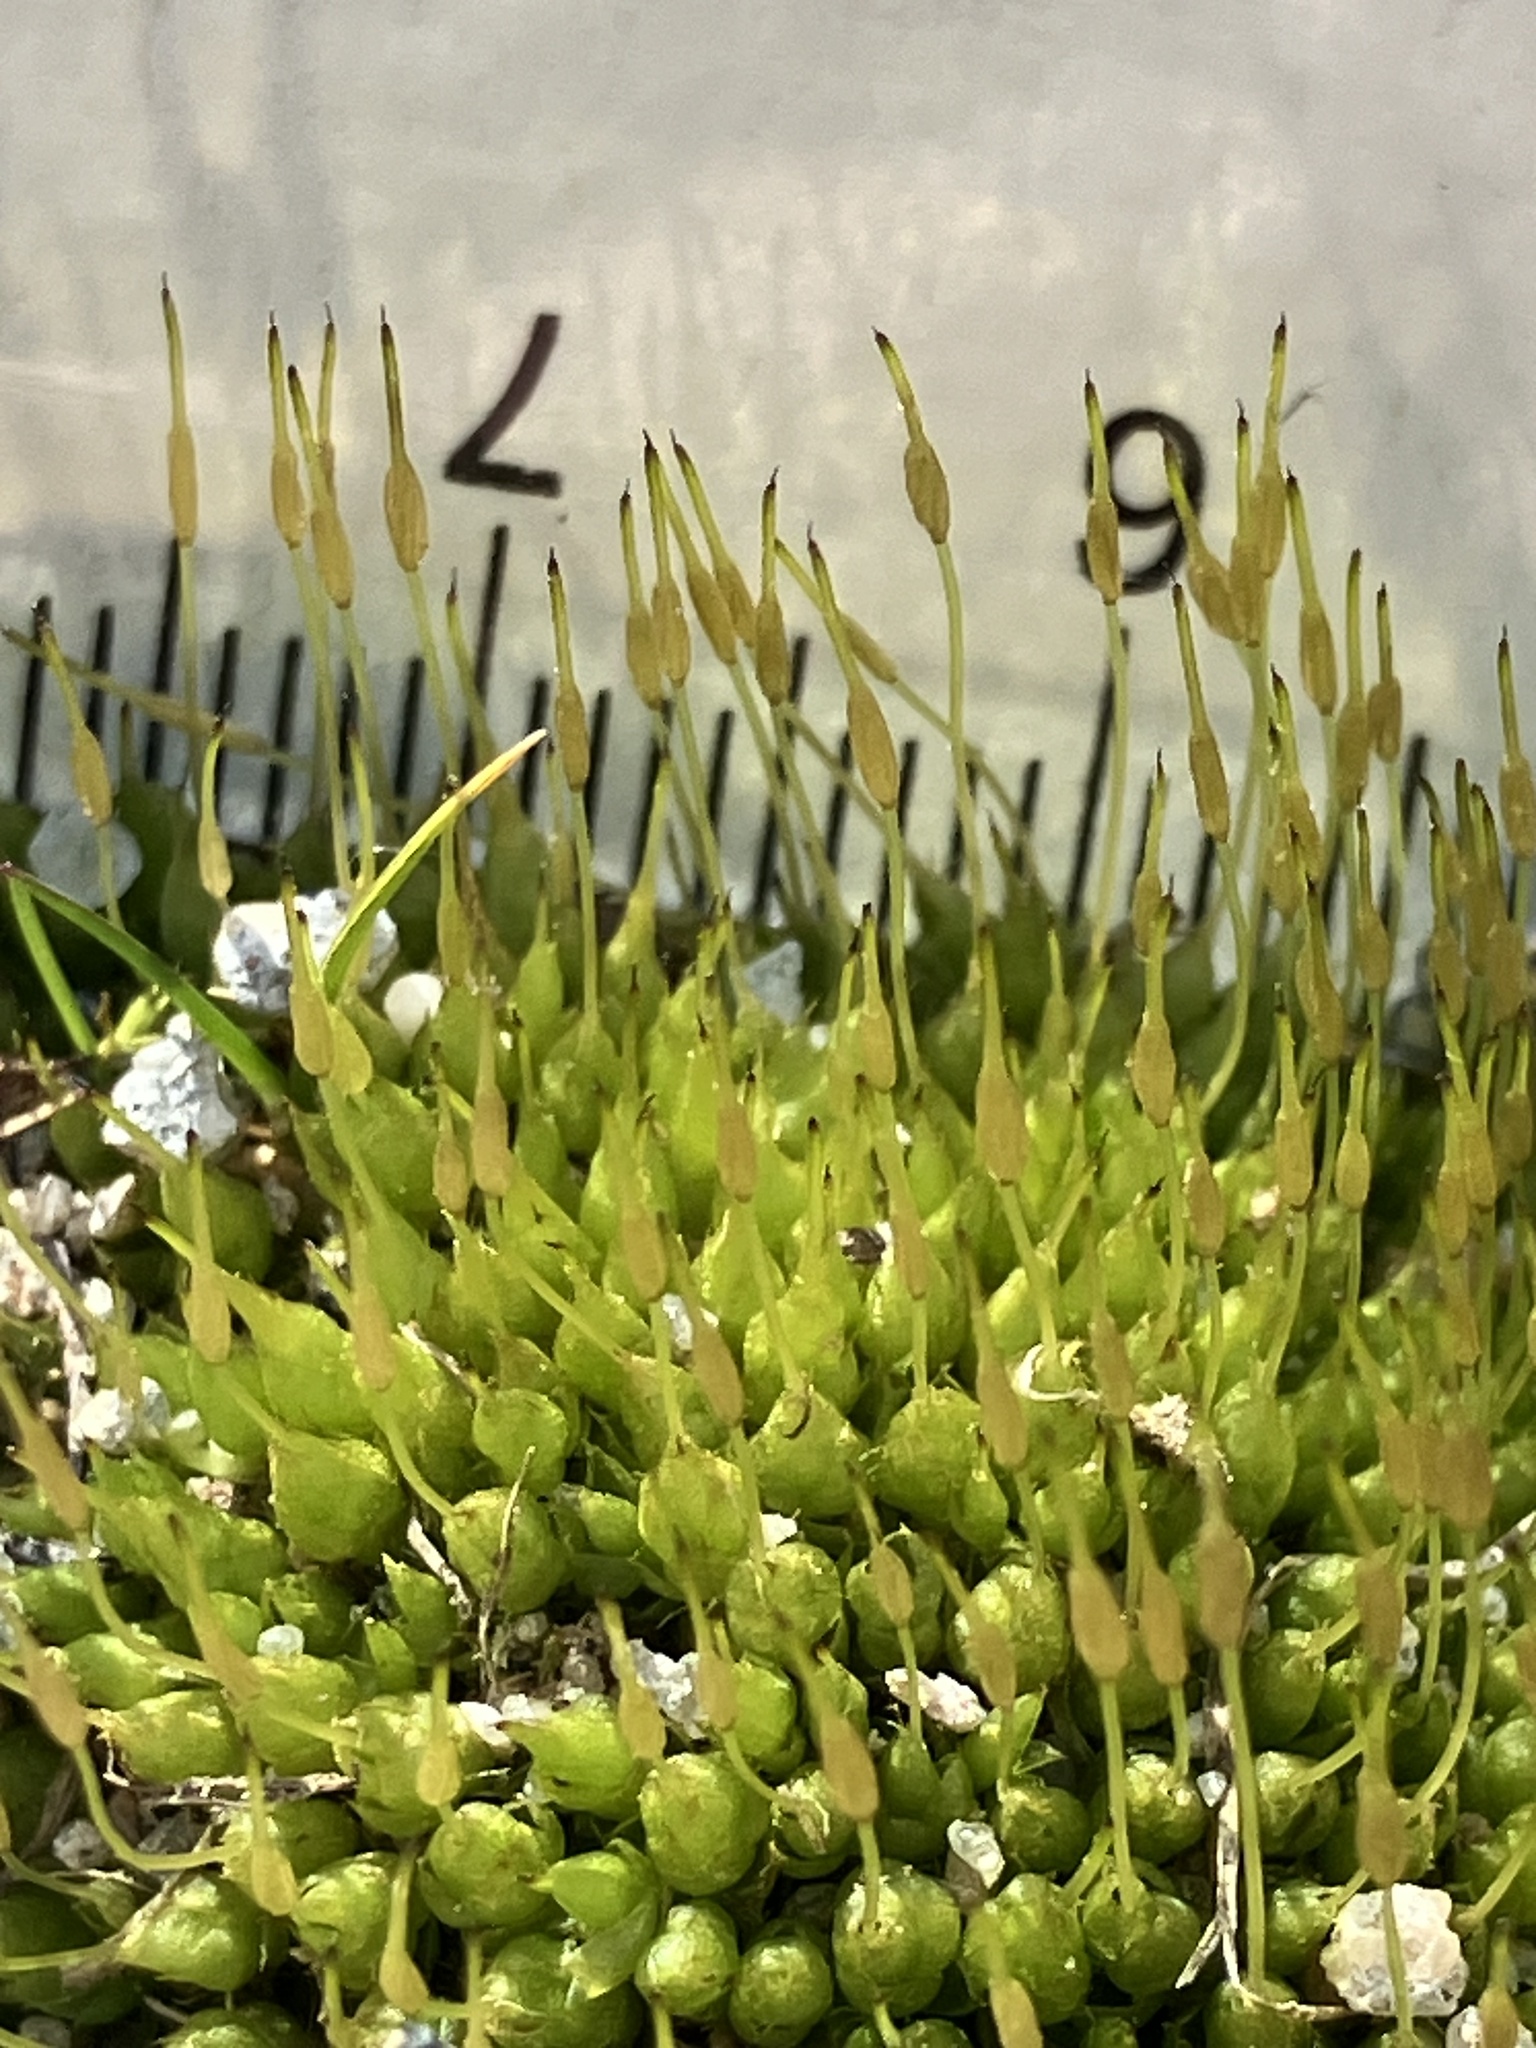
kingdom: Plantae
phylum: Bryophyta
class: Bryopsida
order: Funariales
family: Funariaceae
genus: Funaria
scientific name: Funaria hygrometrica
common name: Common cord moss
